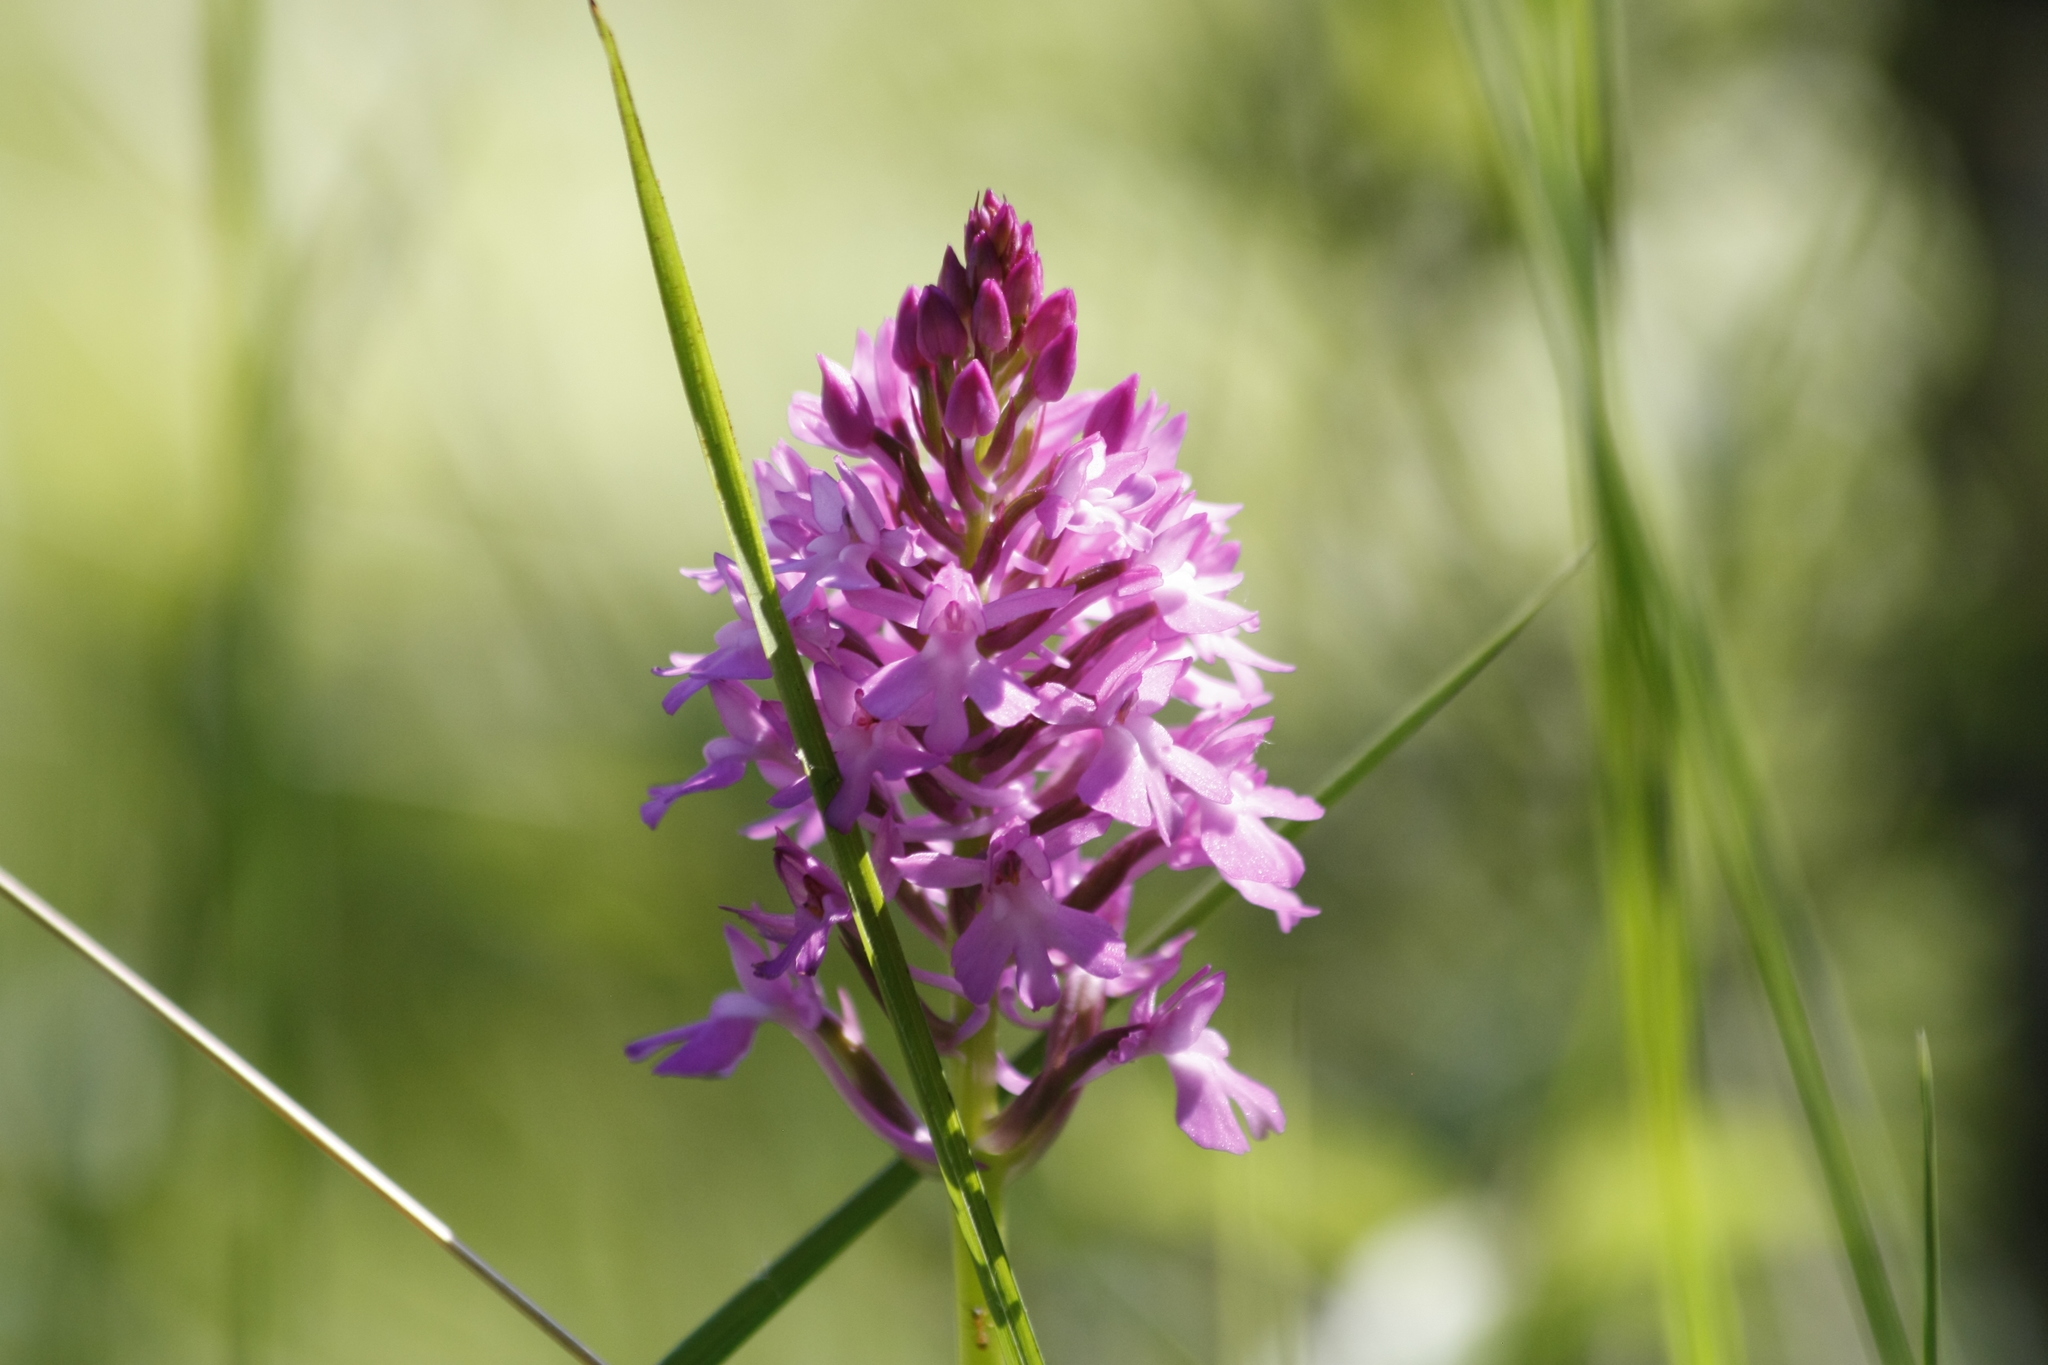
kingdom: Plantae
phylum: Tracheophyta
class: Liliopsida
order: Asparagales
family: Orchidaceae
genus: Anacamptis
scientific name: Anacamptis pyramidalis
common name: Pyramidal orchid
